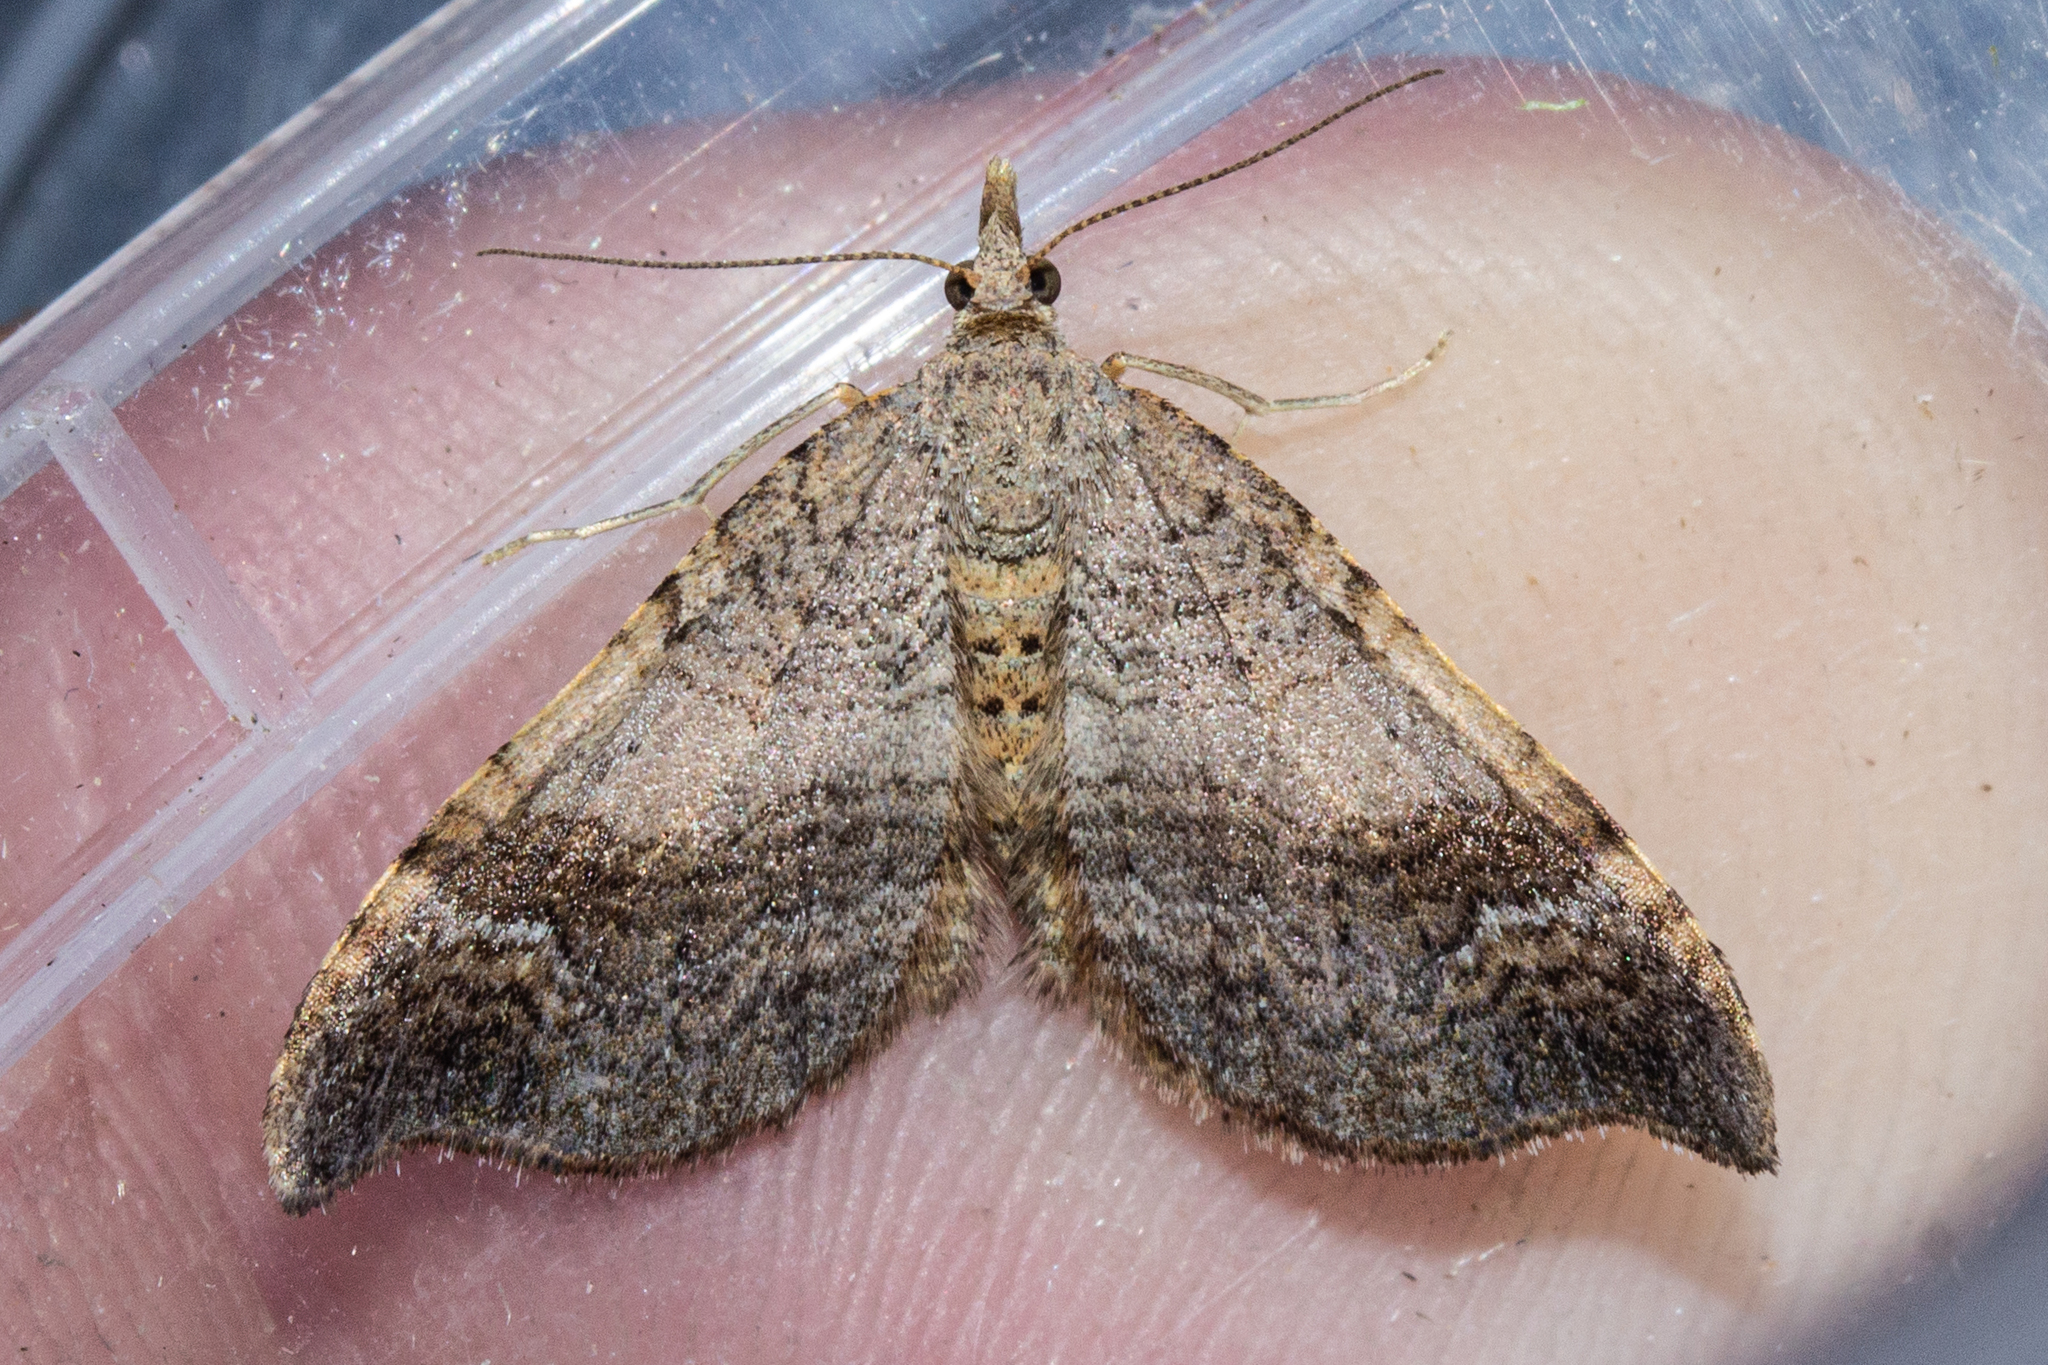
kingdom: Animalia
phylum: Arthropoda
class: Insecta
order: Lepidoptera
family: Geometridae
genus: Homodotis
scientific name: Homodotis megaspilata
